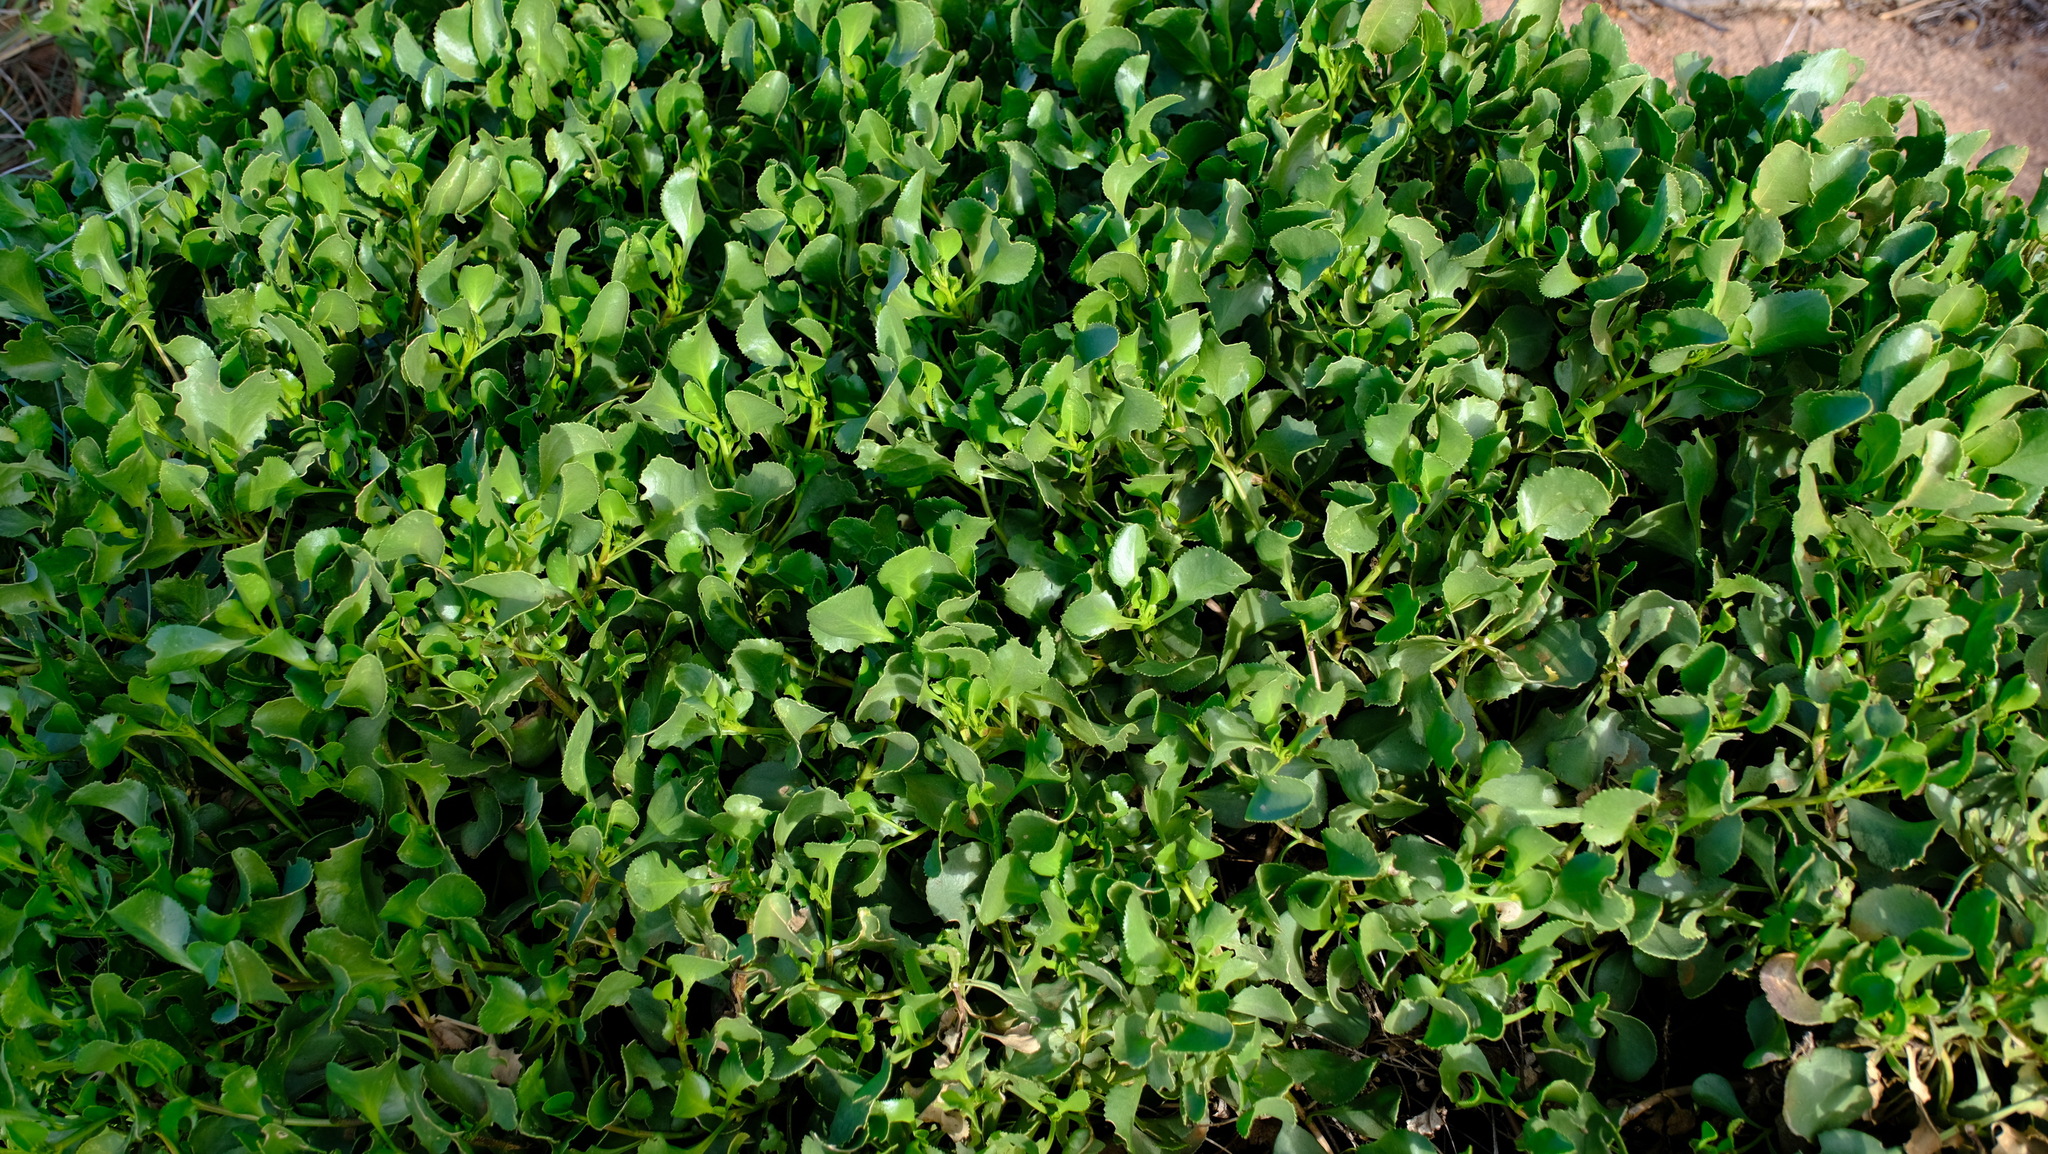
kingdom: Plantae
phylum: Tracheophyta
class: Magnoliopsida
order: Asterales
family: Goodeniaceae
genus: Scaevola
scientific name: Scaevola crassifolia
